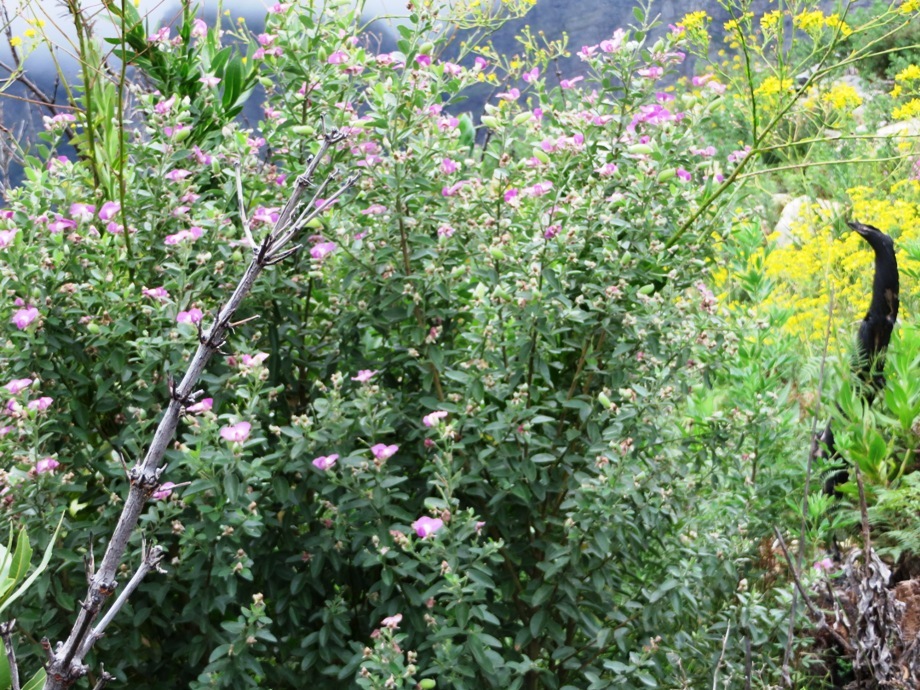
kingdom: Plantae
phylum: Tracheophyta
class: Magnoliopsida
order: Fabales
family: Fabaceae
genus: Podalyria
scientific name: Podalyria calyptrata
